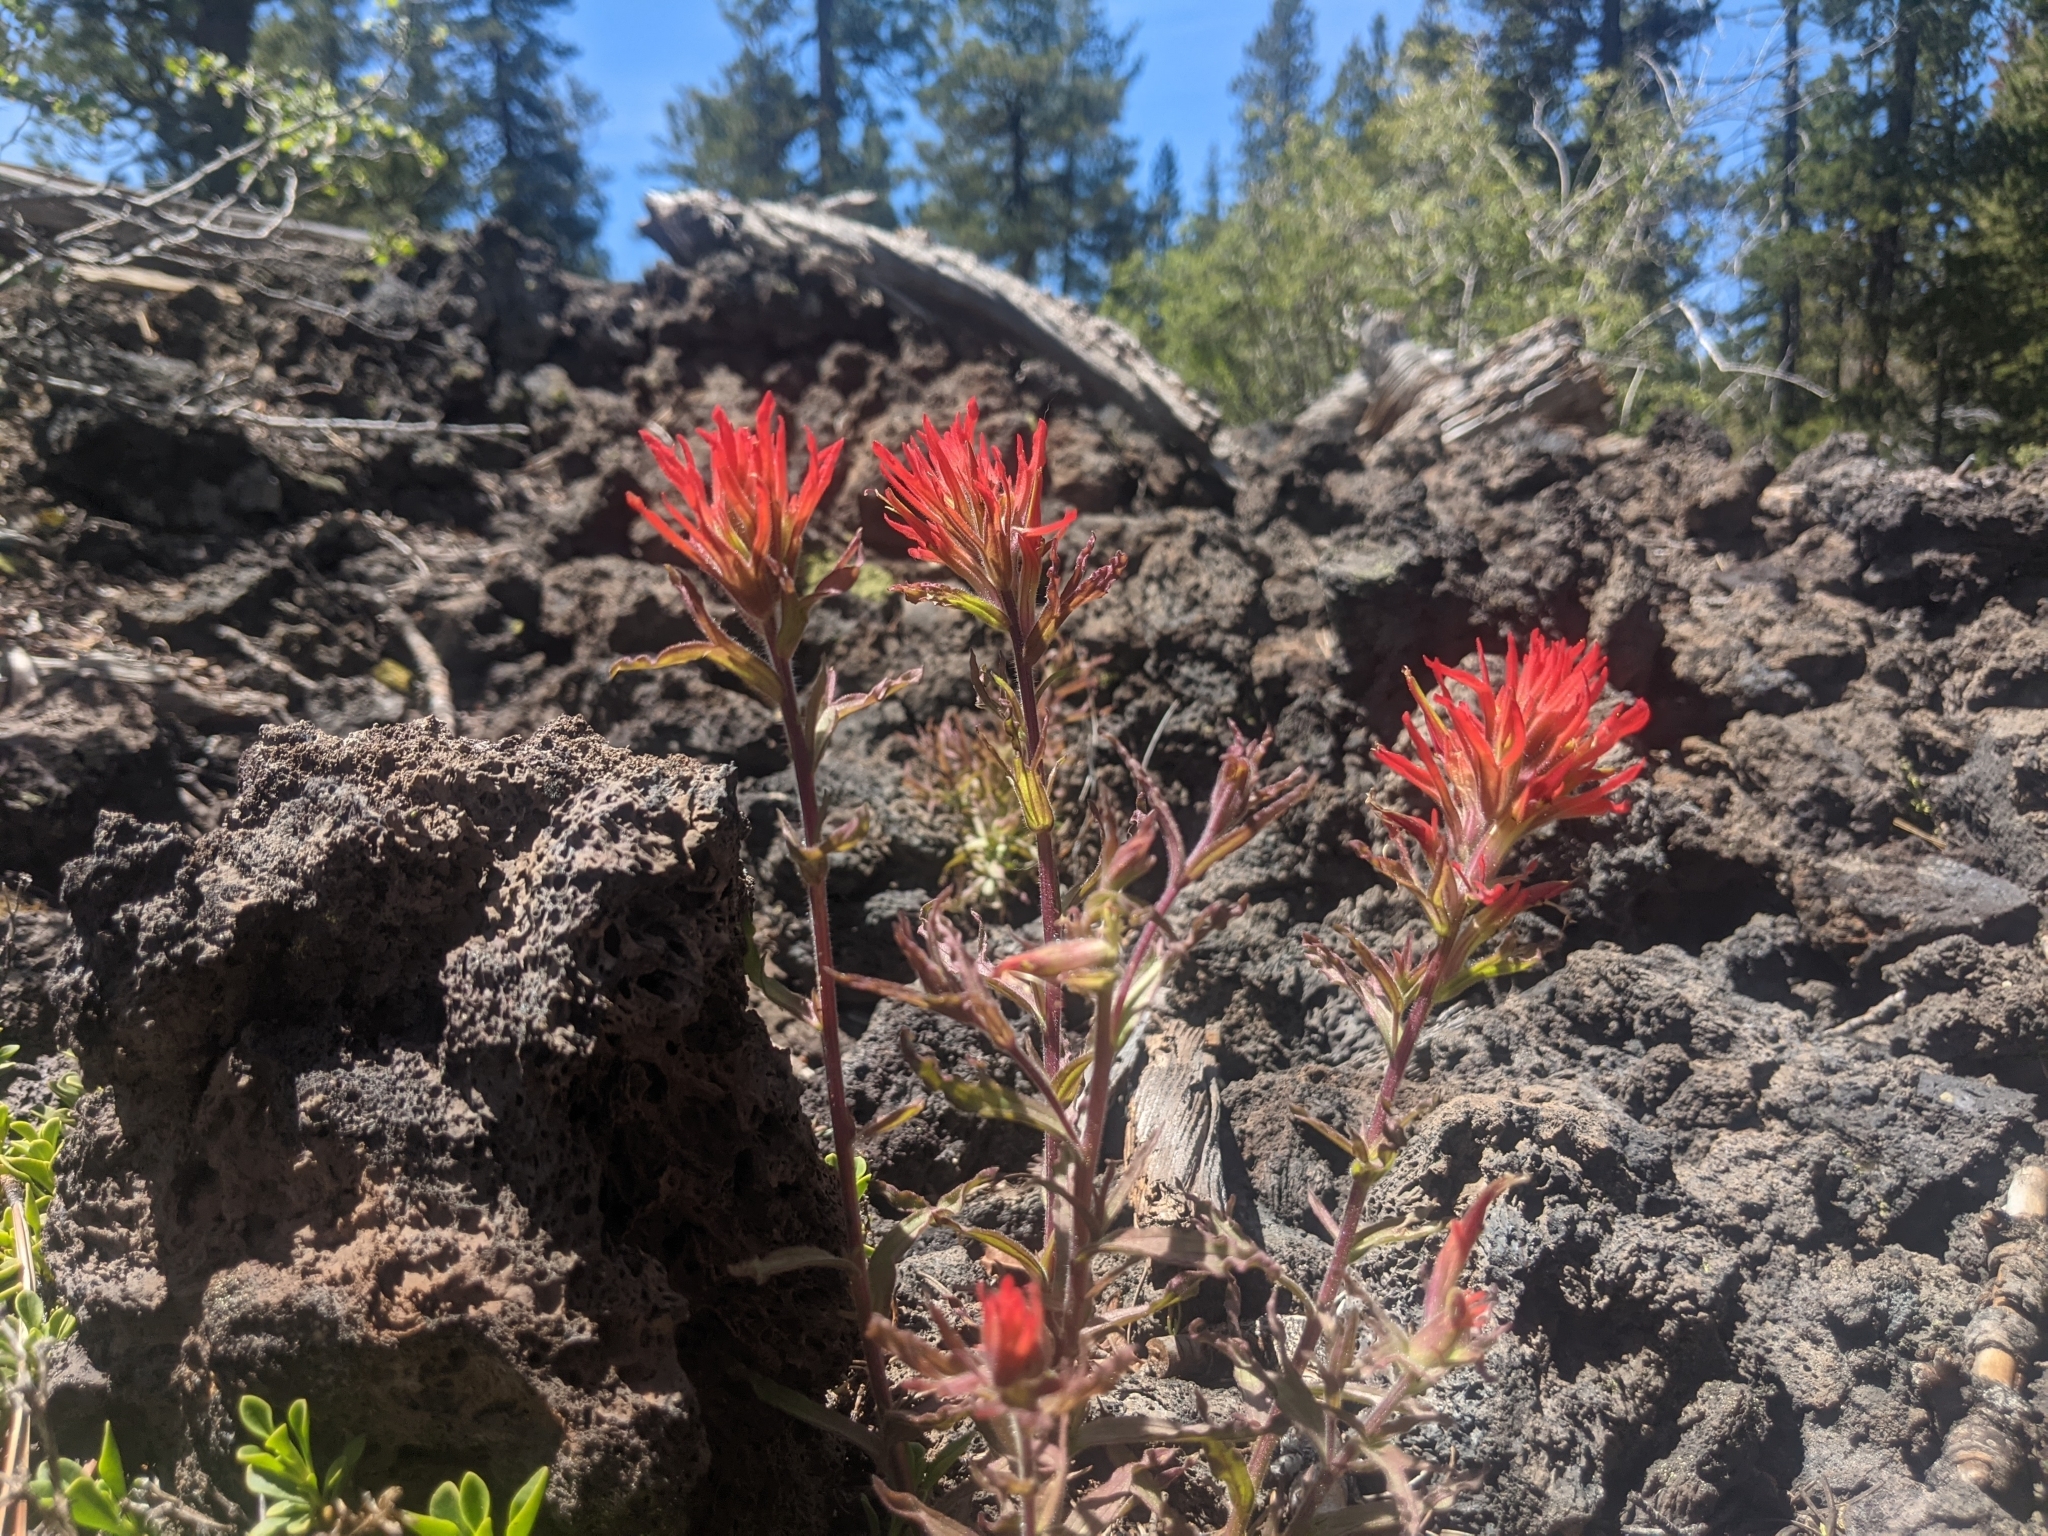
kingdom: Plantae
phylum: Tracheophyta
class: Magnoliopsida
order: Lamiales
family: Orobanchaceae
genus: Castilleja
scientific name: Castilleja applegatei
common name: Wavy-leaf paintbrush
